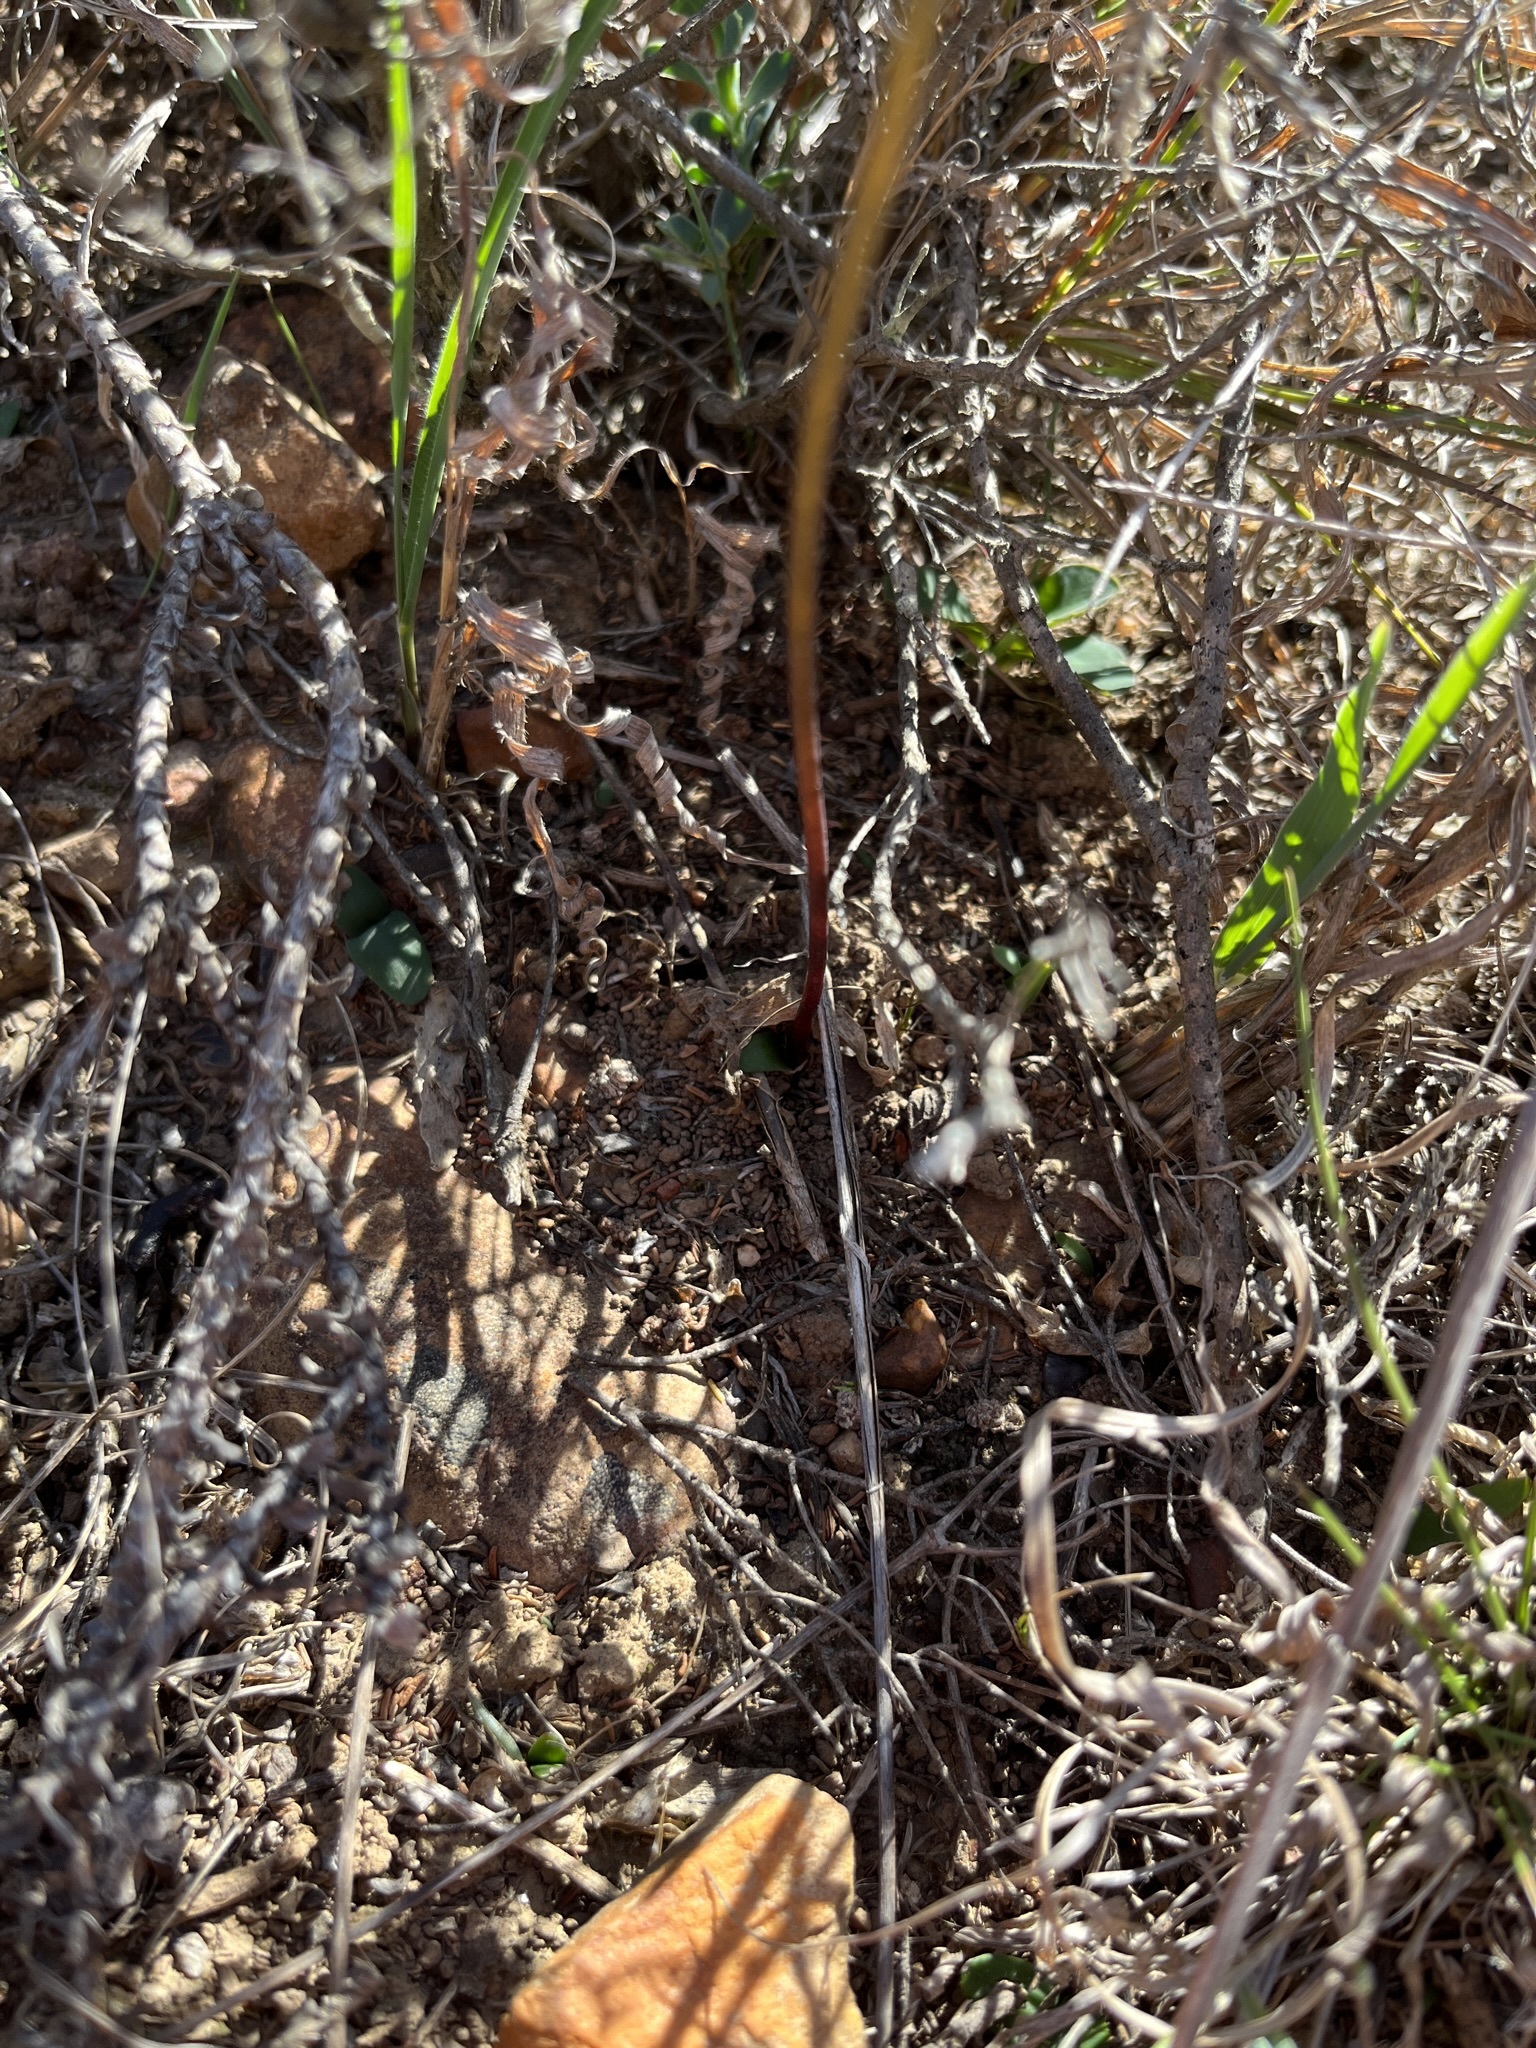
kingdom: Plantae
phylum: Tracheophyta
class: Liliopsida
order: Asparagales
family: Amaryllidaceae
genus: Nerine
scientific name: Nerine humilis
